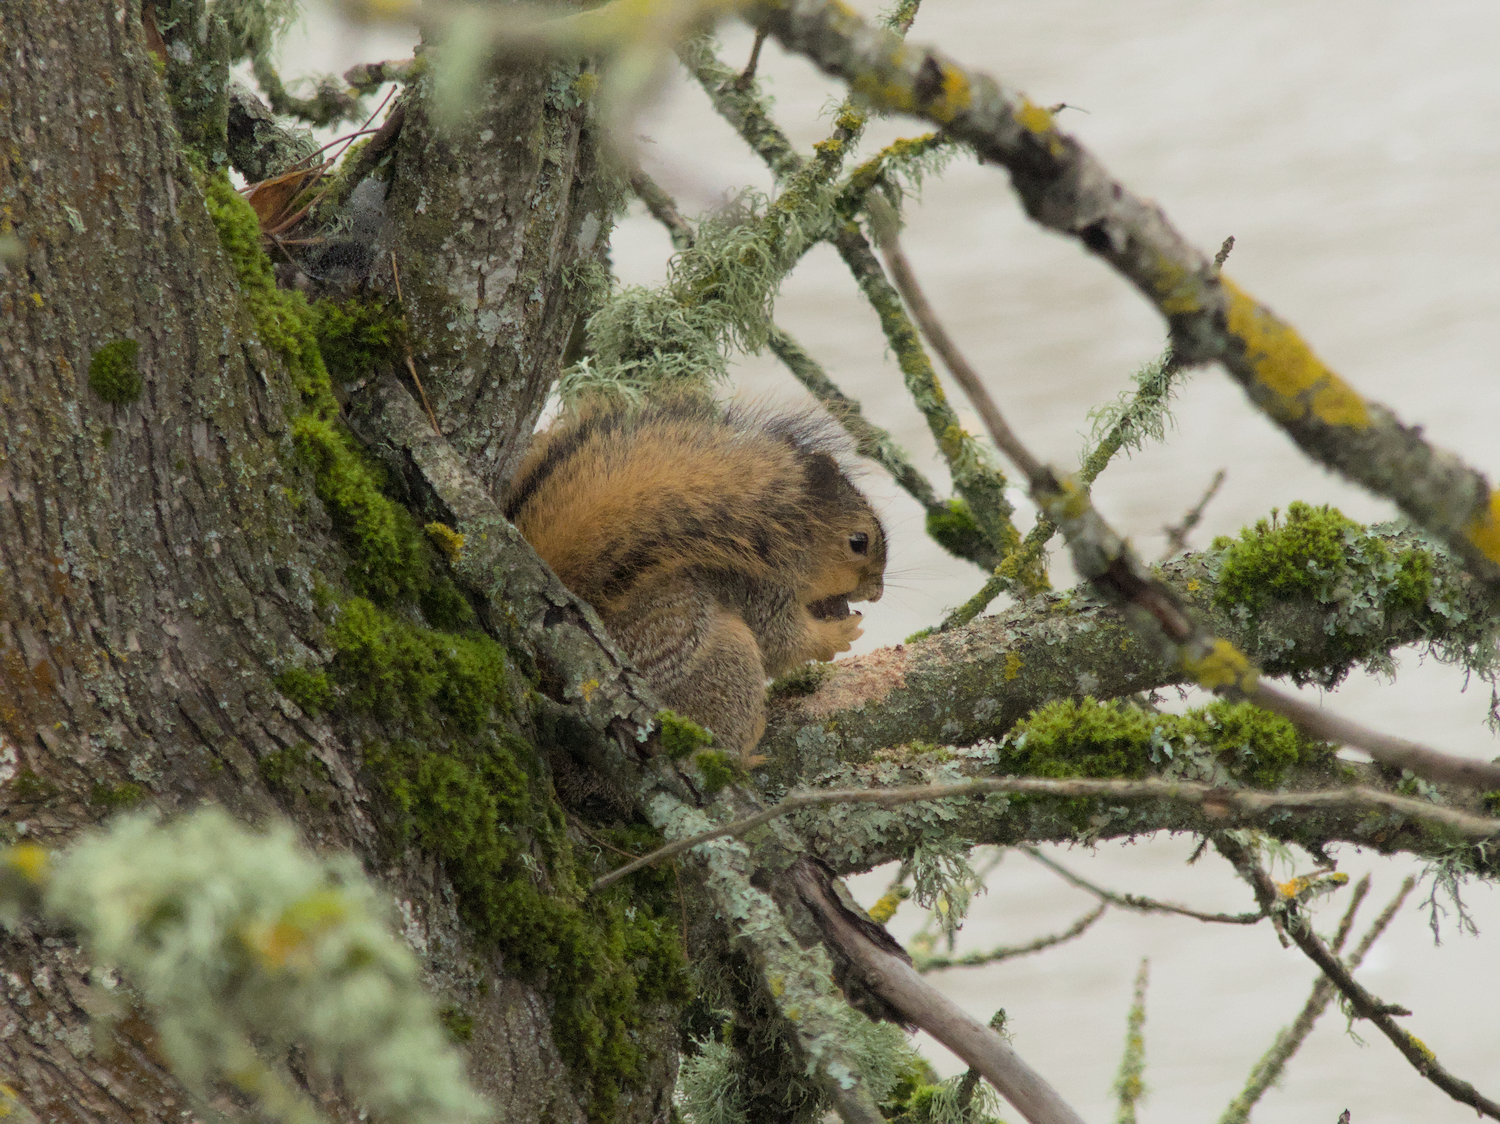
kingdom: Animalia
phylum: Chordata
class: Mammalia
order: Rodentia
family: Sciuridae
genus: Sciurus
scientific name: Sciurus niger
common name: Fox squirrel
